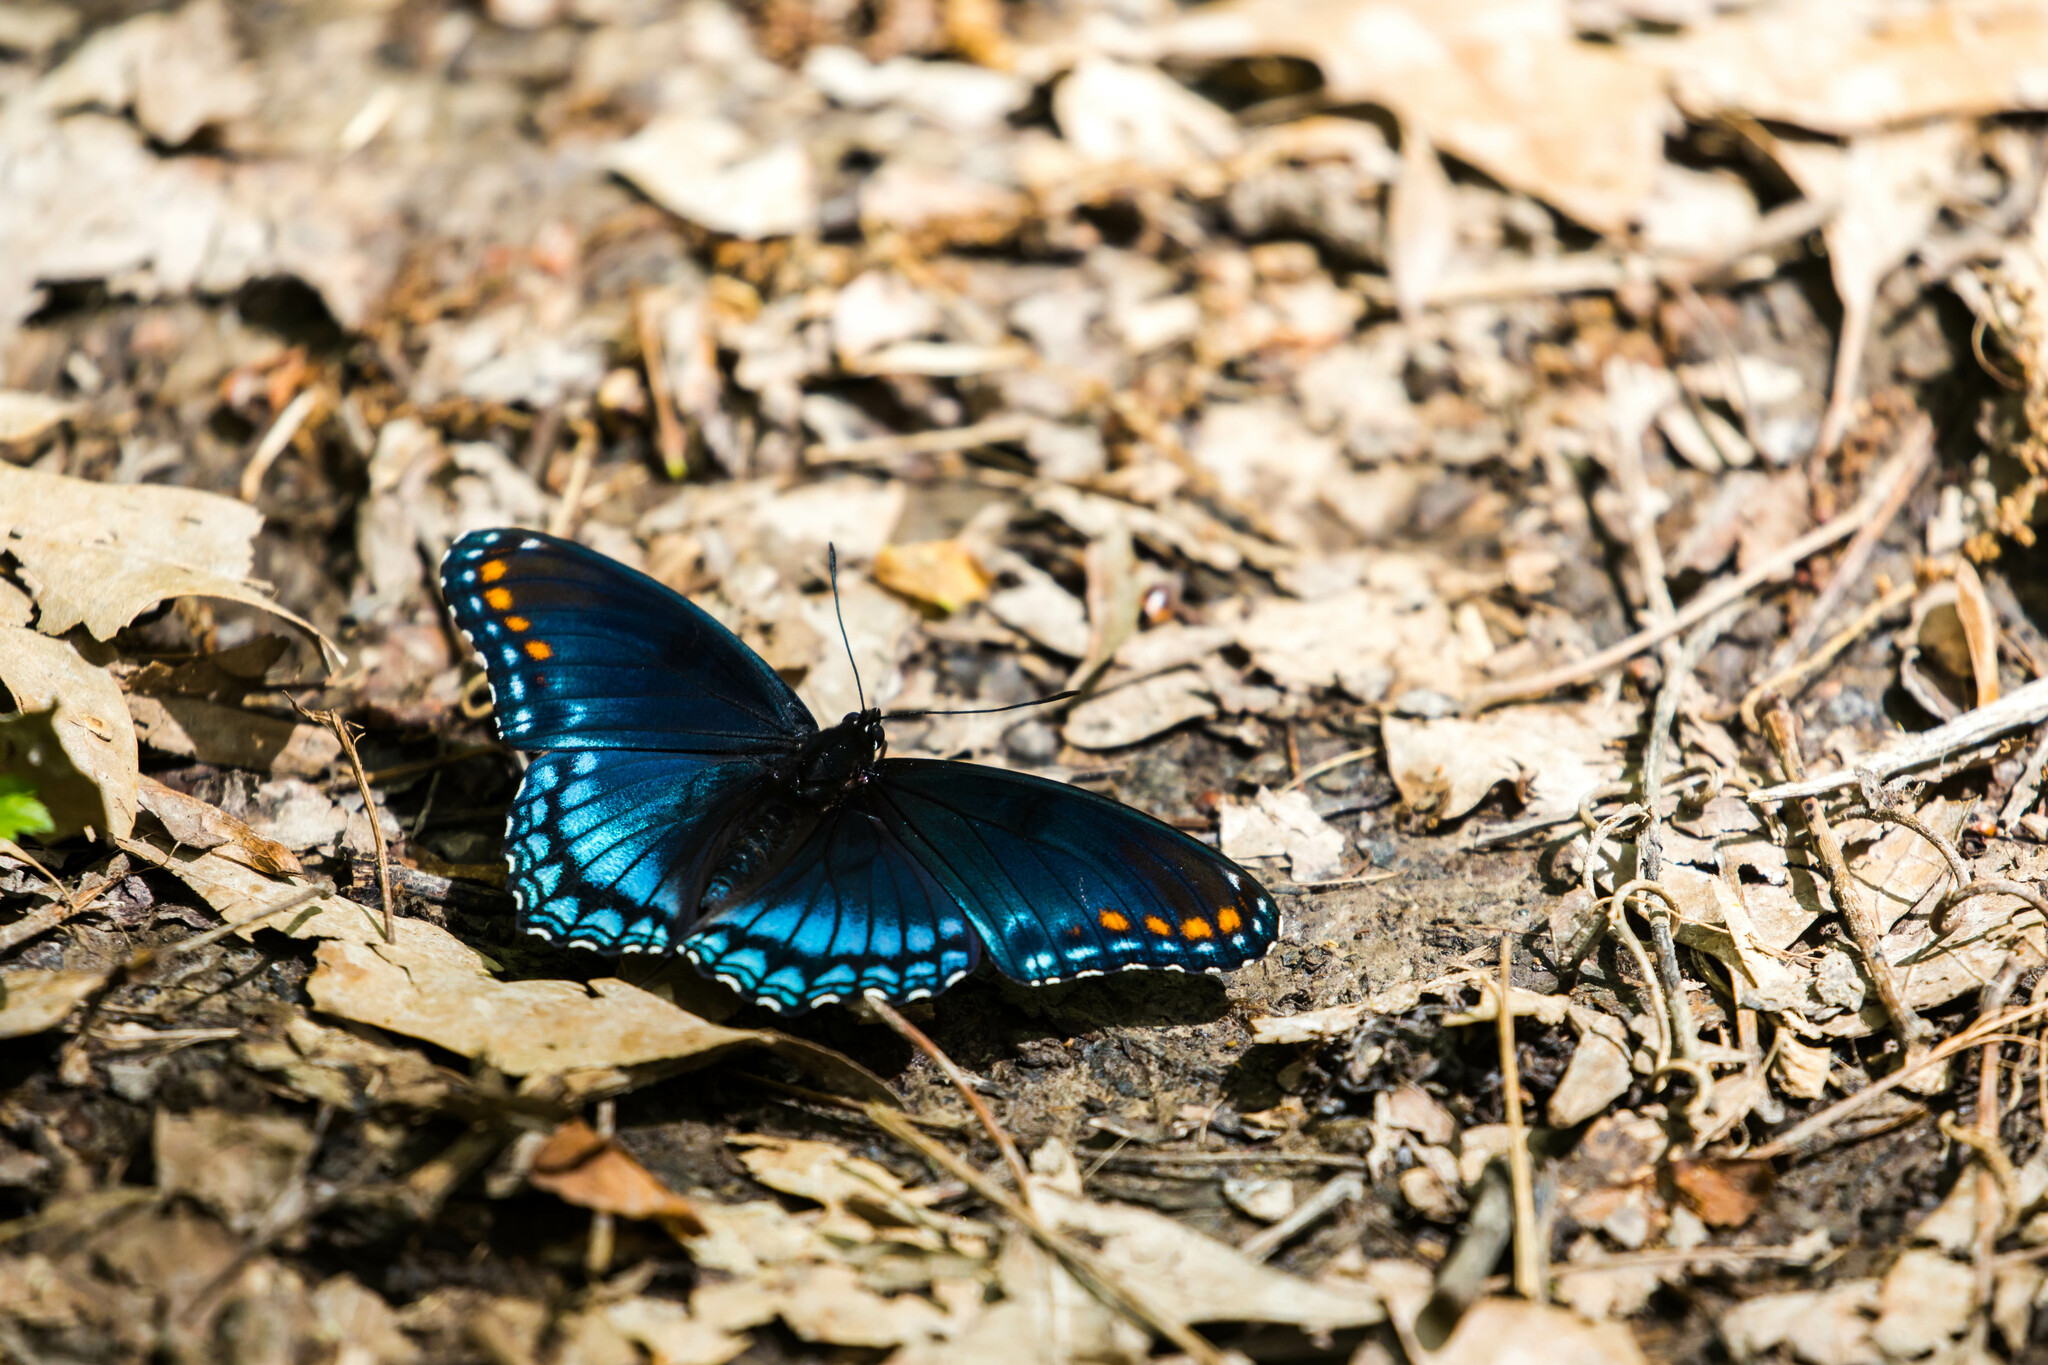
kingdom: Animalia
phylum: Arthropoda
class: Insecta
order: Lepidoptera
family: Nymphalidae
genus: Limenitis
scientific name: Limenitis astyanax
